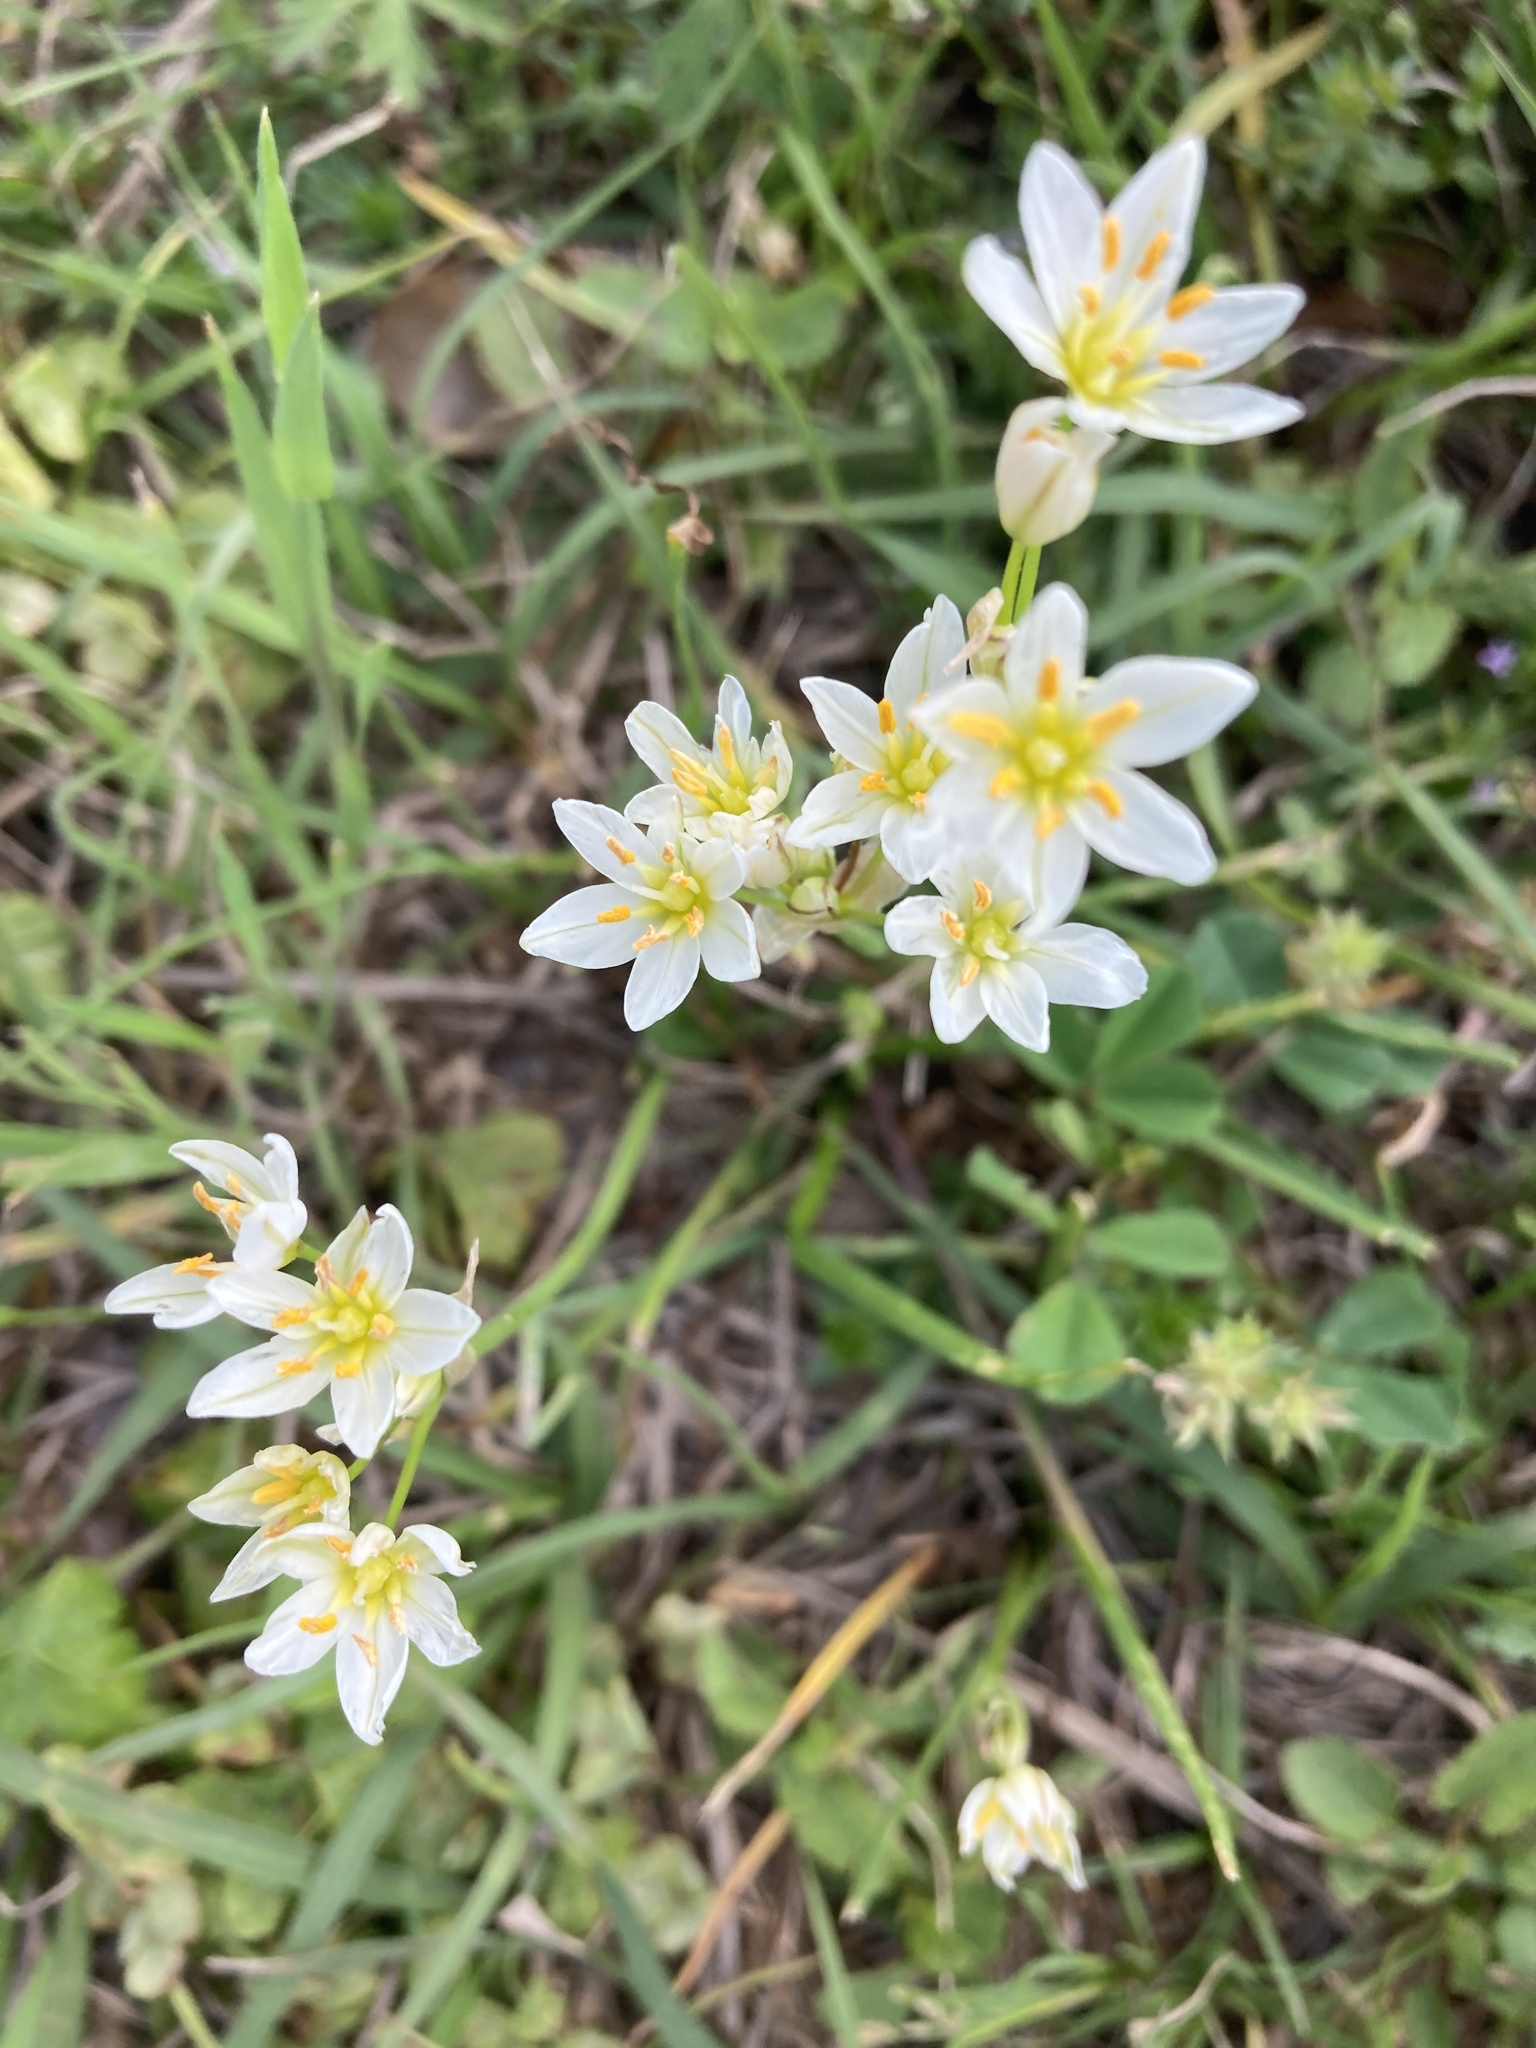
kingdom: Plantae
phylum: Tracheophyta
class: Liliopsida
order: Asparagales
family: Amaryllidaceae
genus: Nothoscordum
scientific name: Nothoscordum bivalve
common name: Crow-poison
